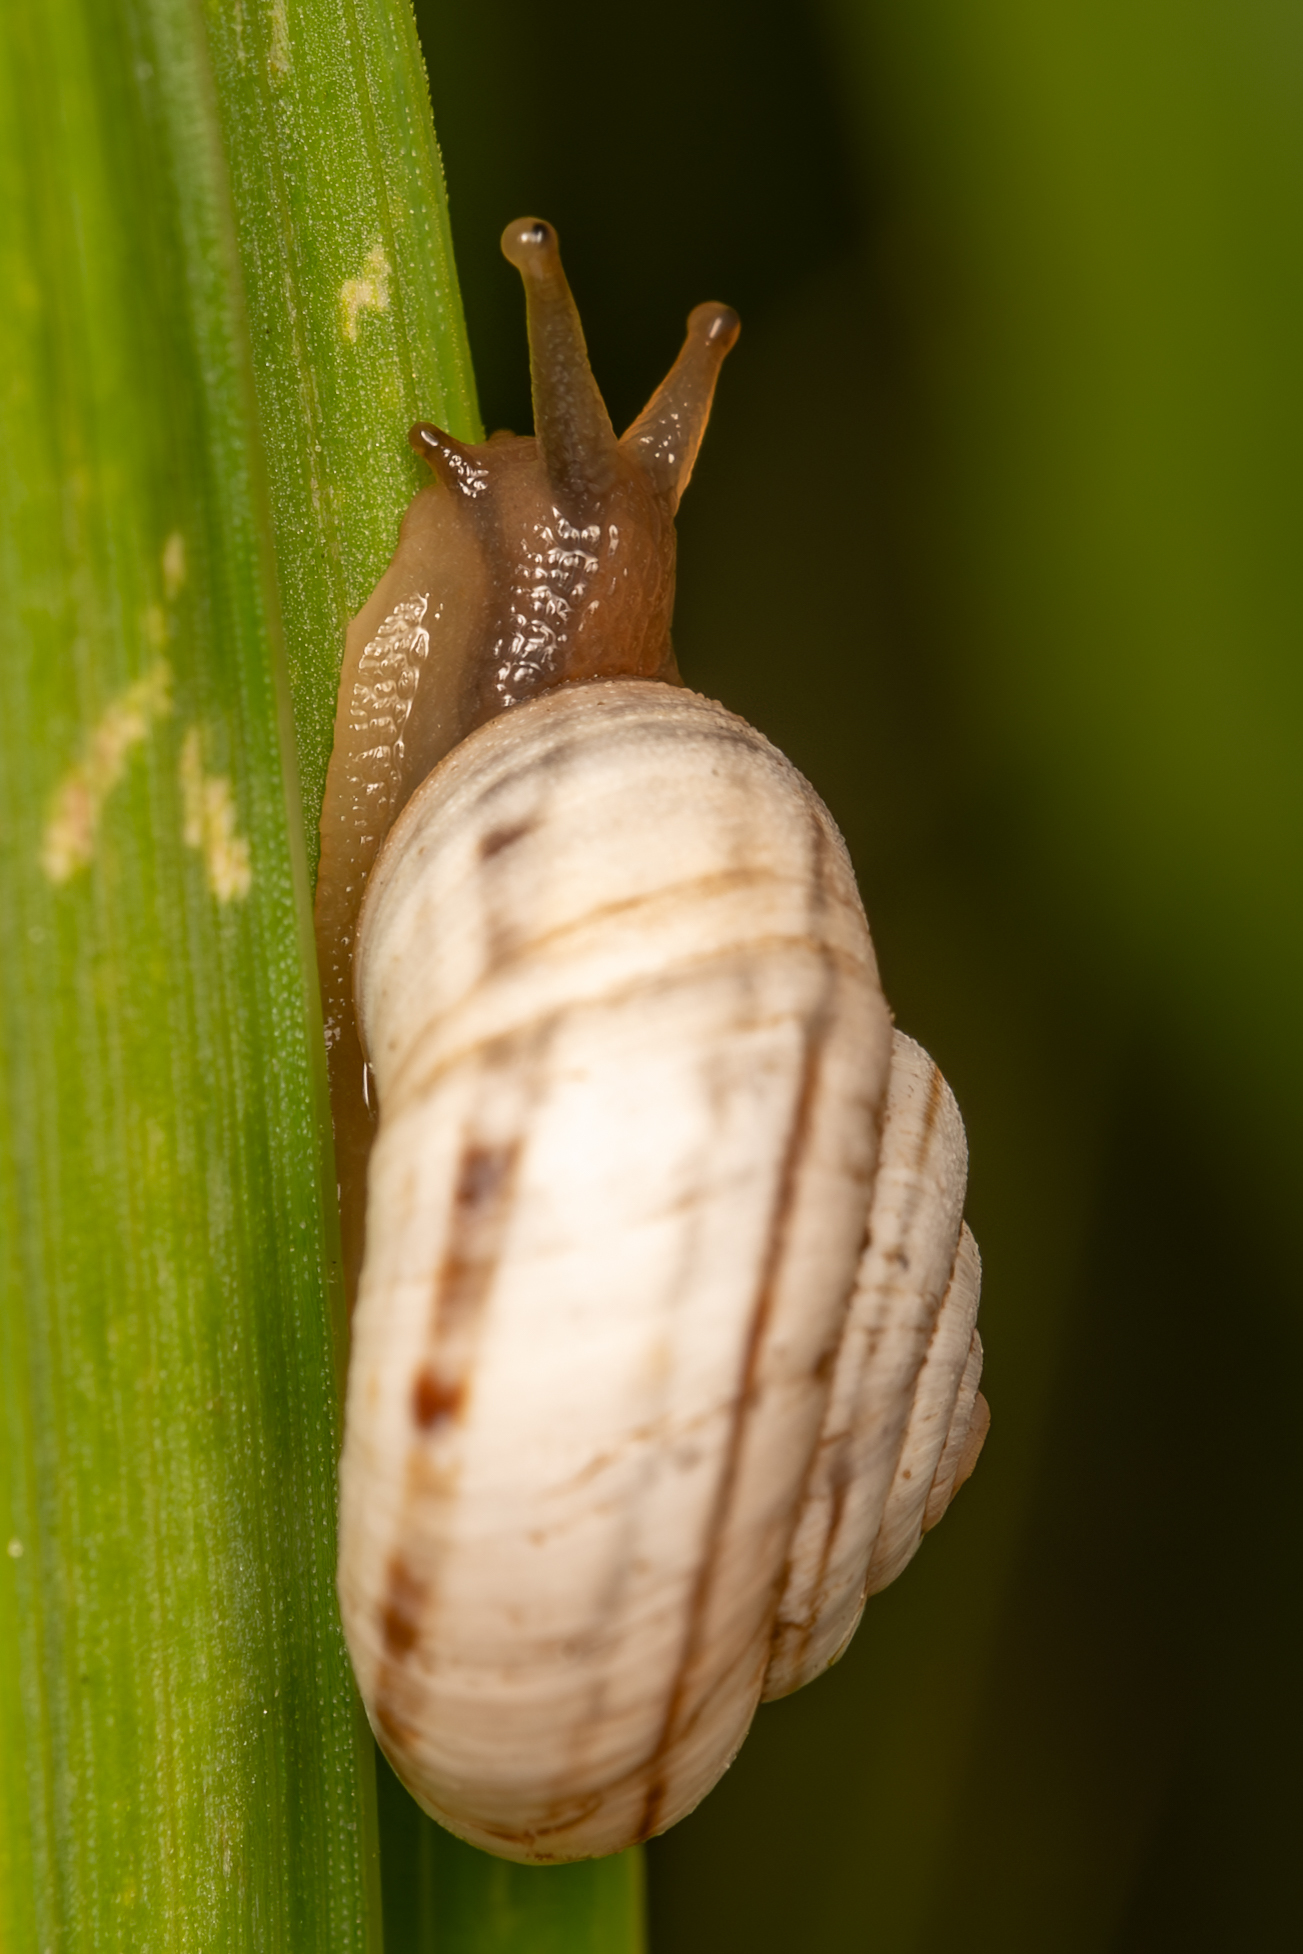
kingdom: Animalia
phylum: Mollusca
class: Gastropoda
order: Stylommatophora
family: Geomitridae
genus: Xerolenta
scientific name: Xerolenta obvia
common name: White heath snail
